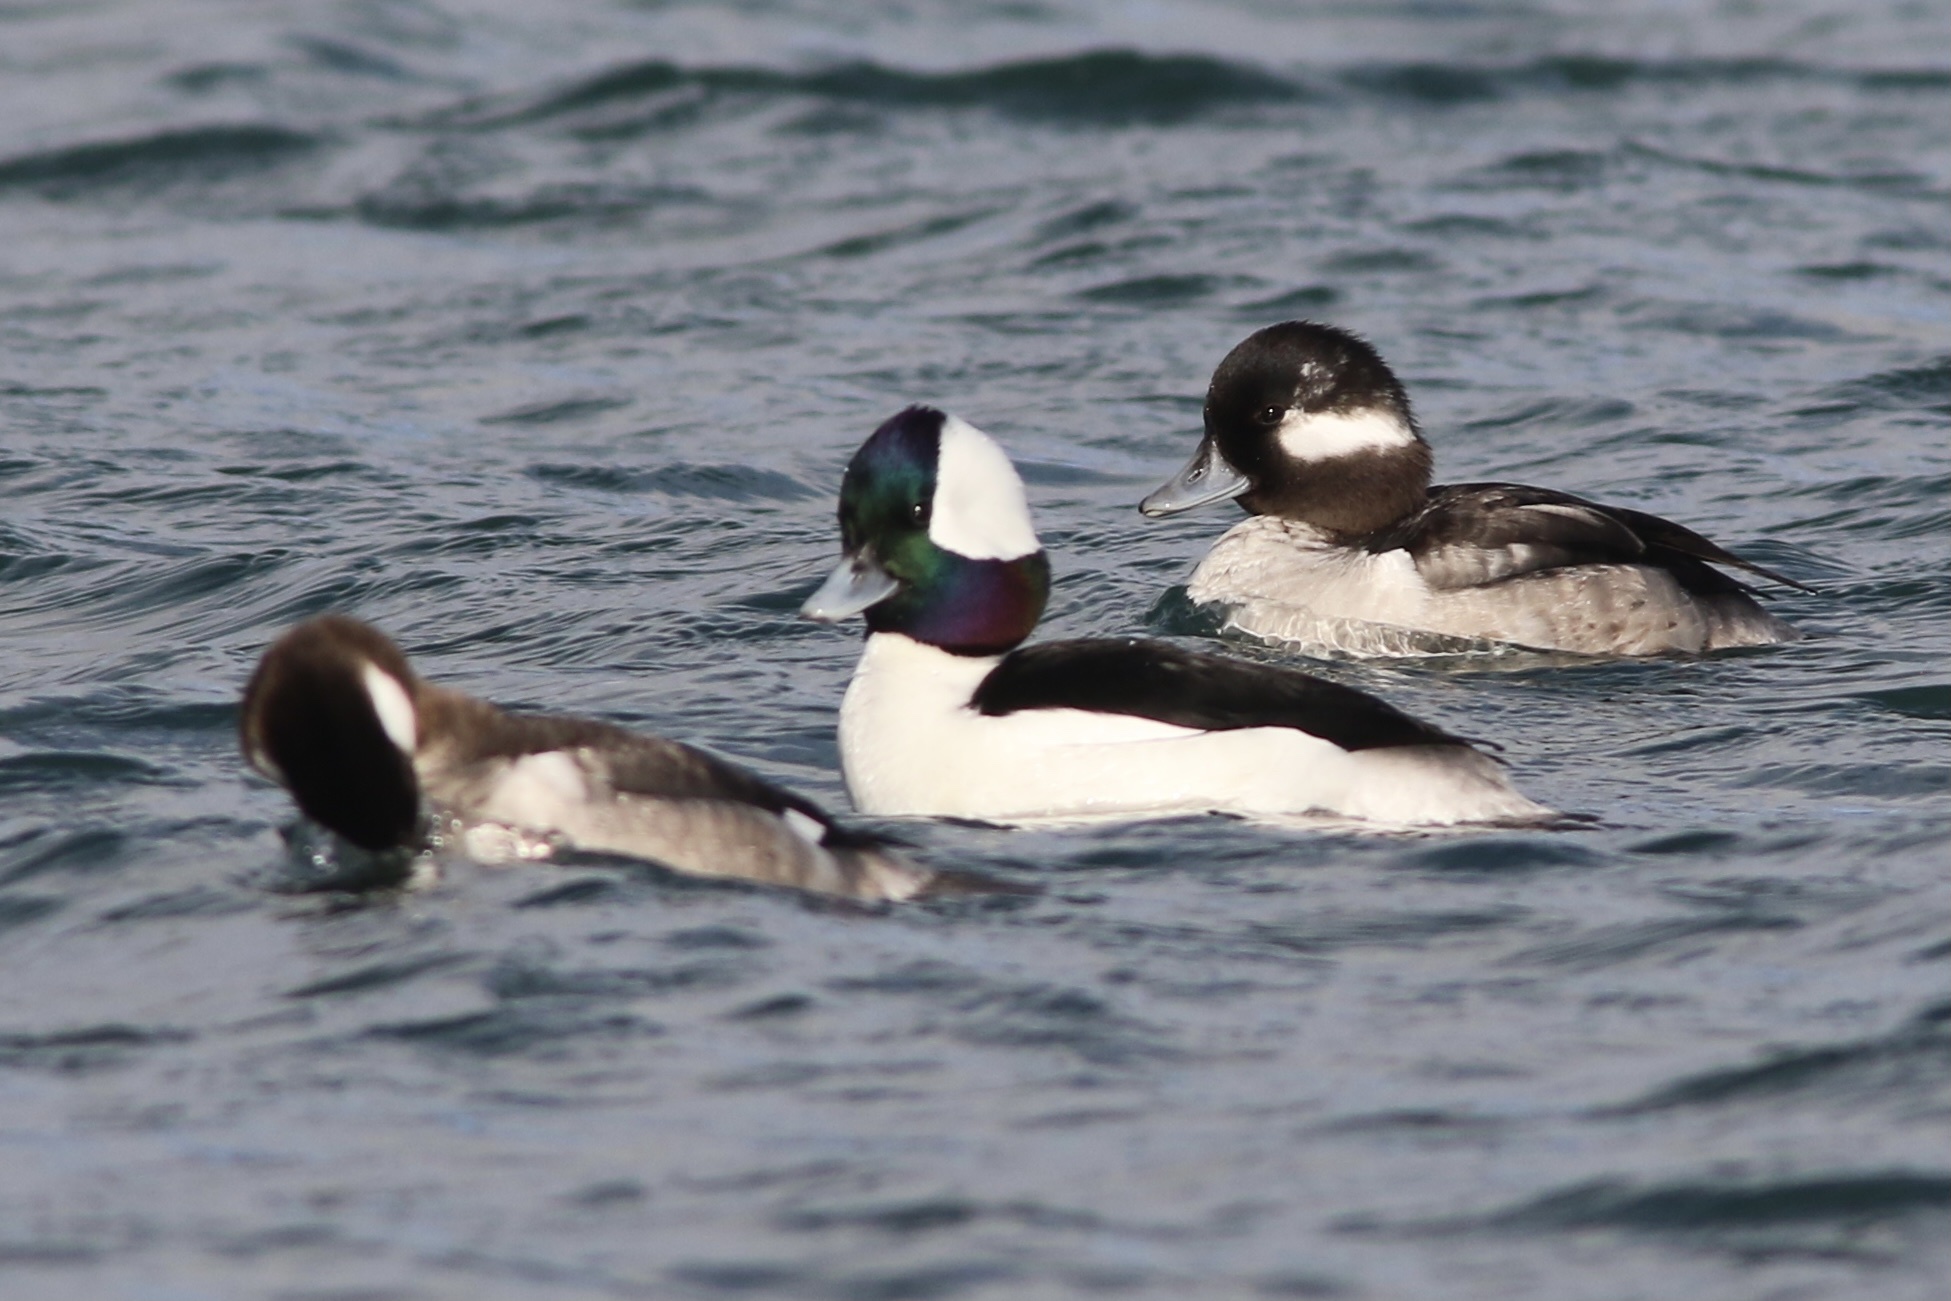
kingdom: Animalia
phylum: Chordata
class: Aves
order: Anseriformes
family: Anatidae
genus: Bucephala
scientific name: Bucephala albeola
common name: Bufflehead
